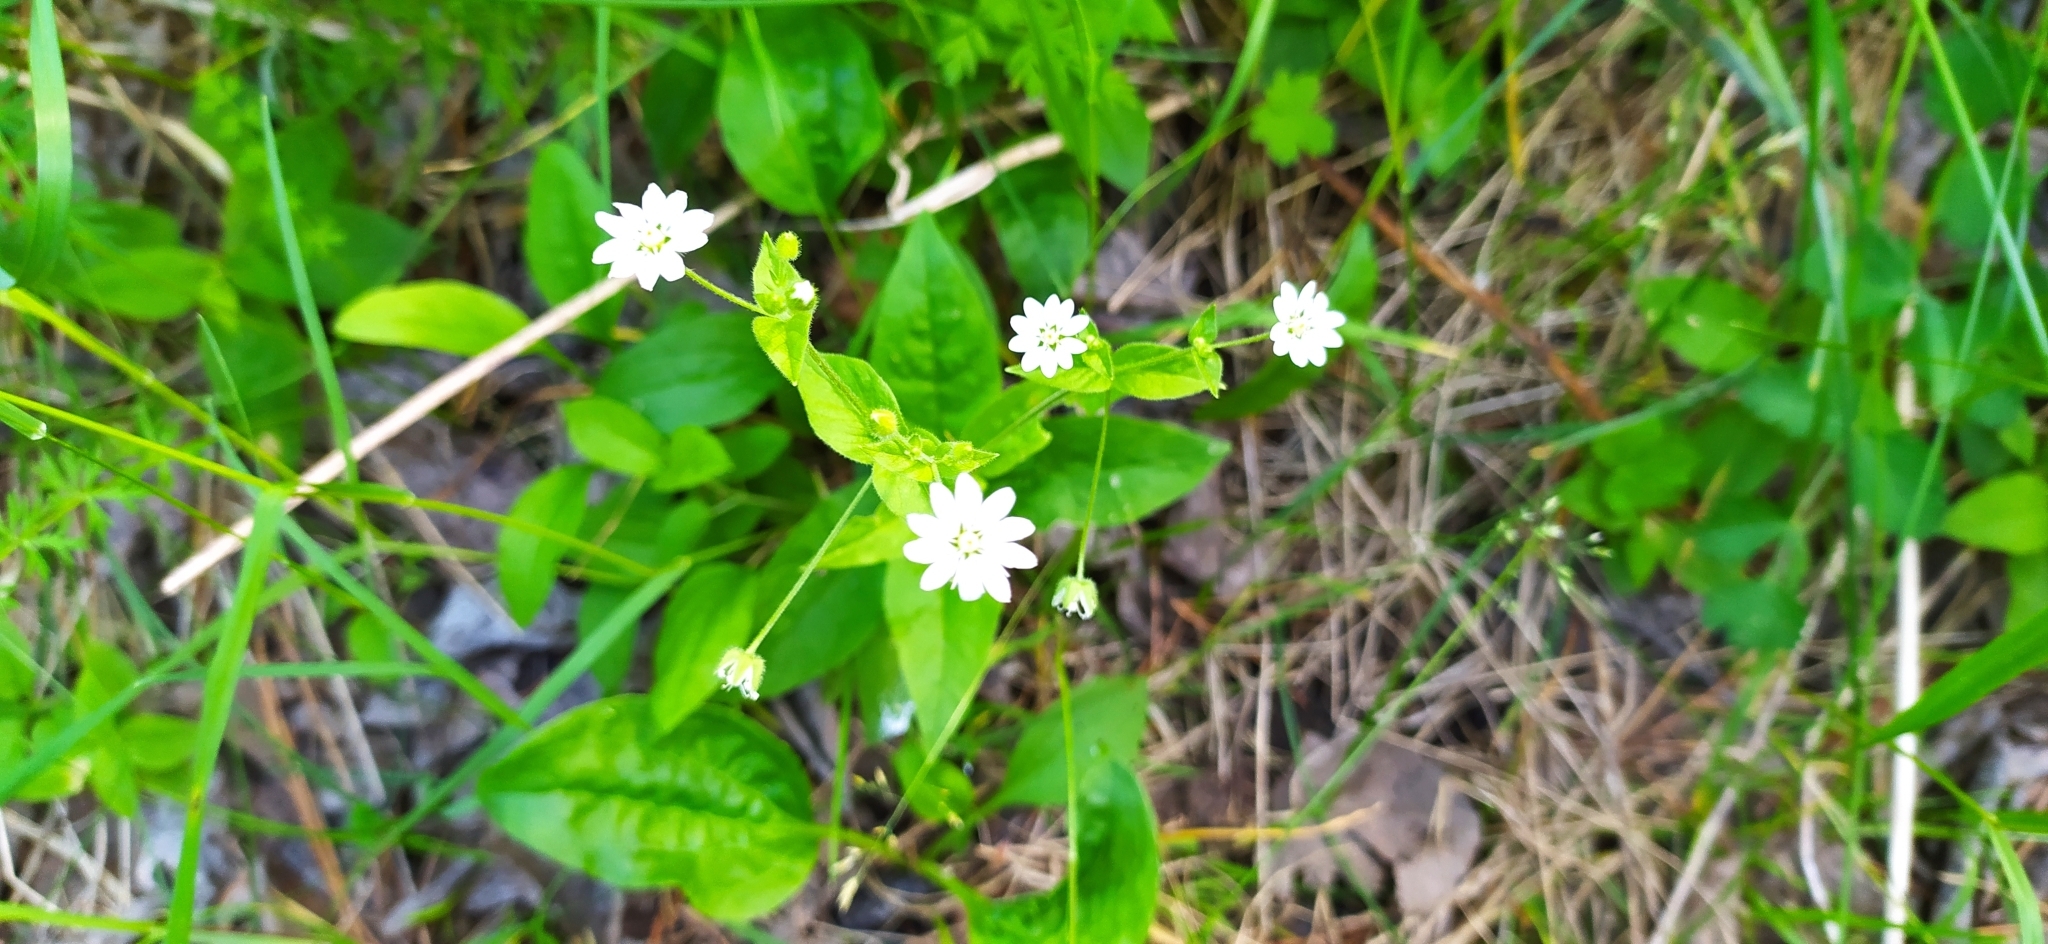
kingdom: Plantae
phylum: Tracheophyta
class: Magnoliopsida
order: Caryophyllales
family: Caryophyllaceae
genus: Stellaria
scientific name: Stellaria bungeana
